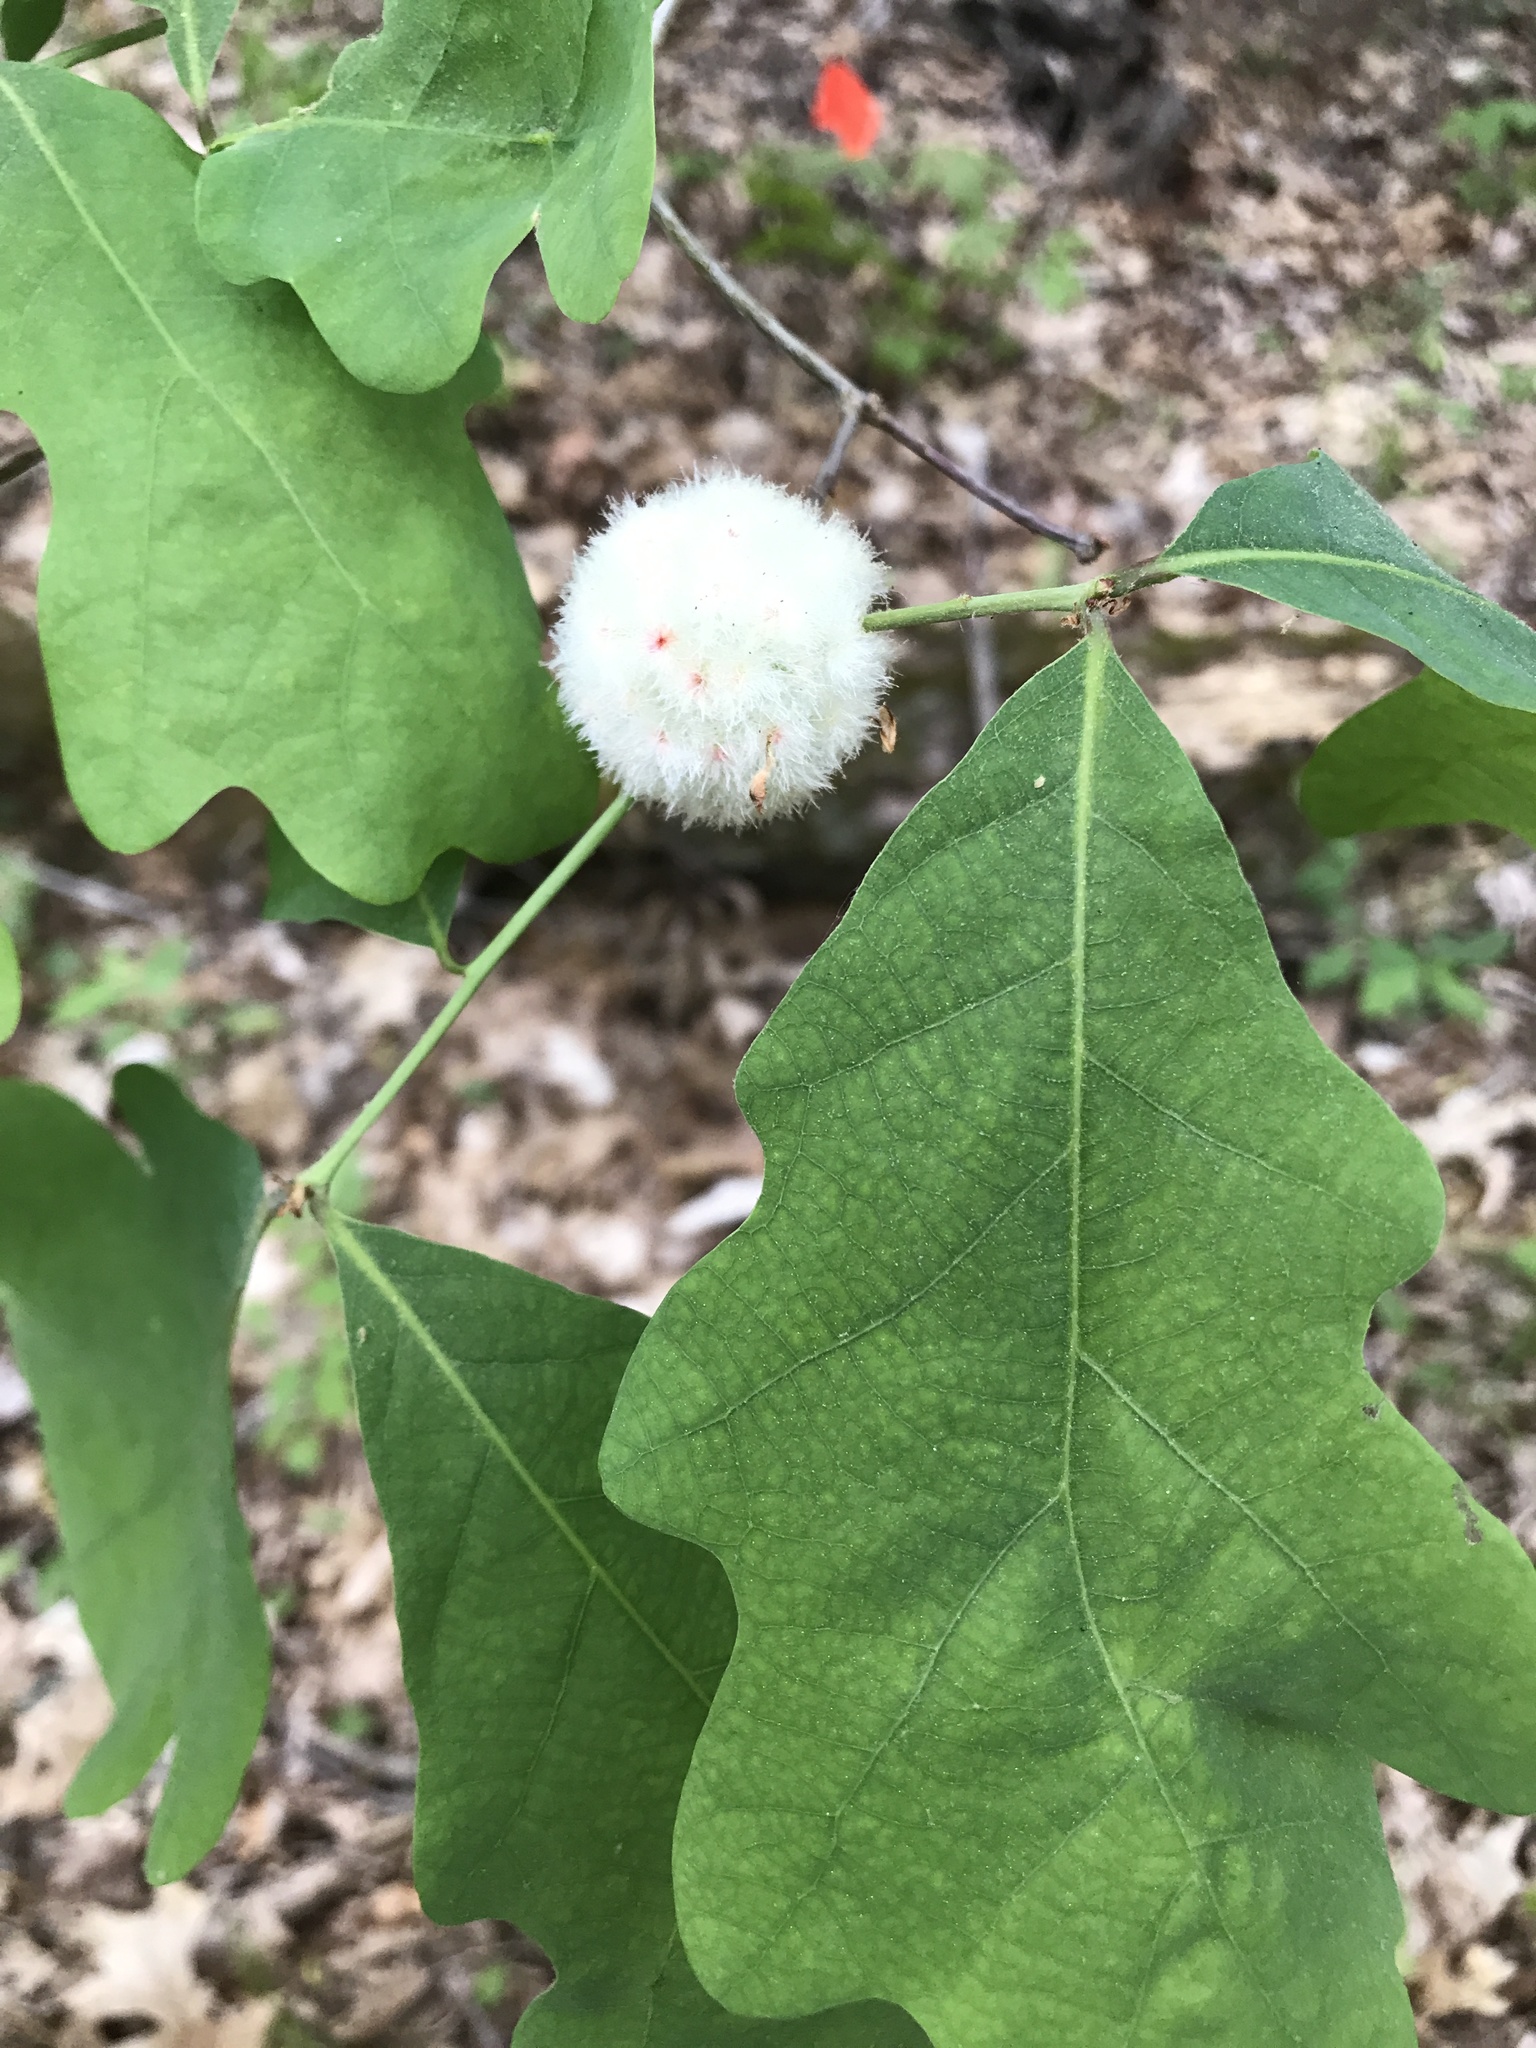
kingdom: Animalia
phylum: Arthropoda
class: Insecta
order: Hymenoptera
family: Cynipidae
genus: Callirhytis
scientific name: Callirhytis
